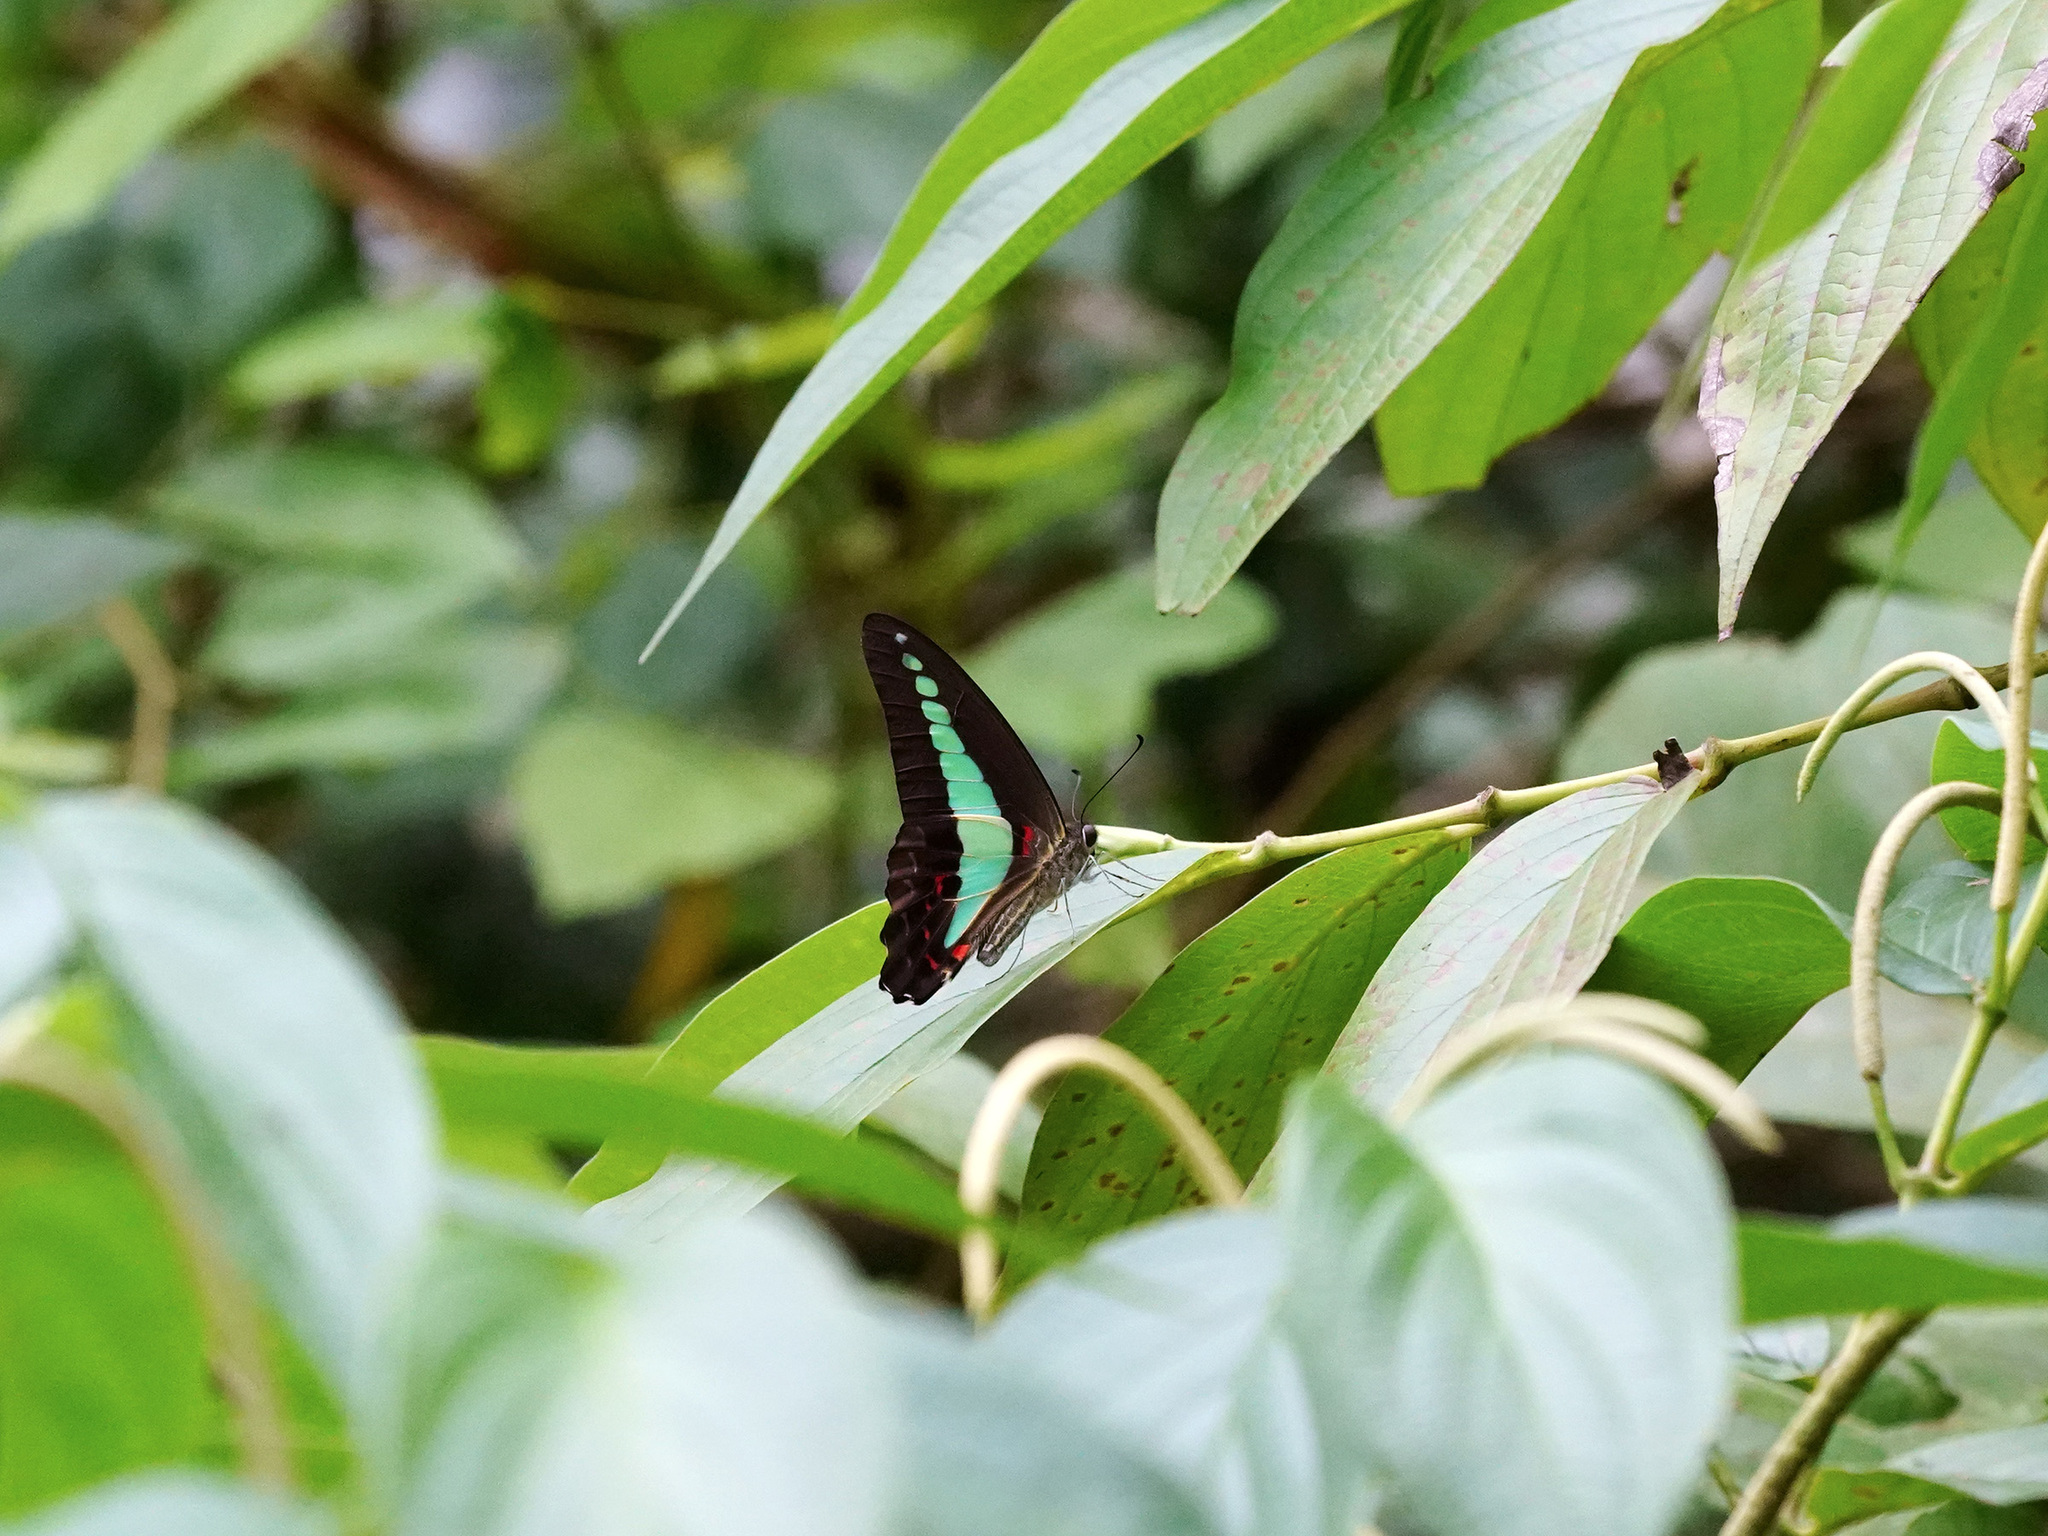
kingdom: Fungi
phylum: Ascomycota
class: Sordariomycetes
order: Microascales
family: Microascaceae
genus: Graphium
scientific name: Graphium sarpedon
